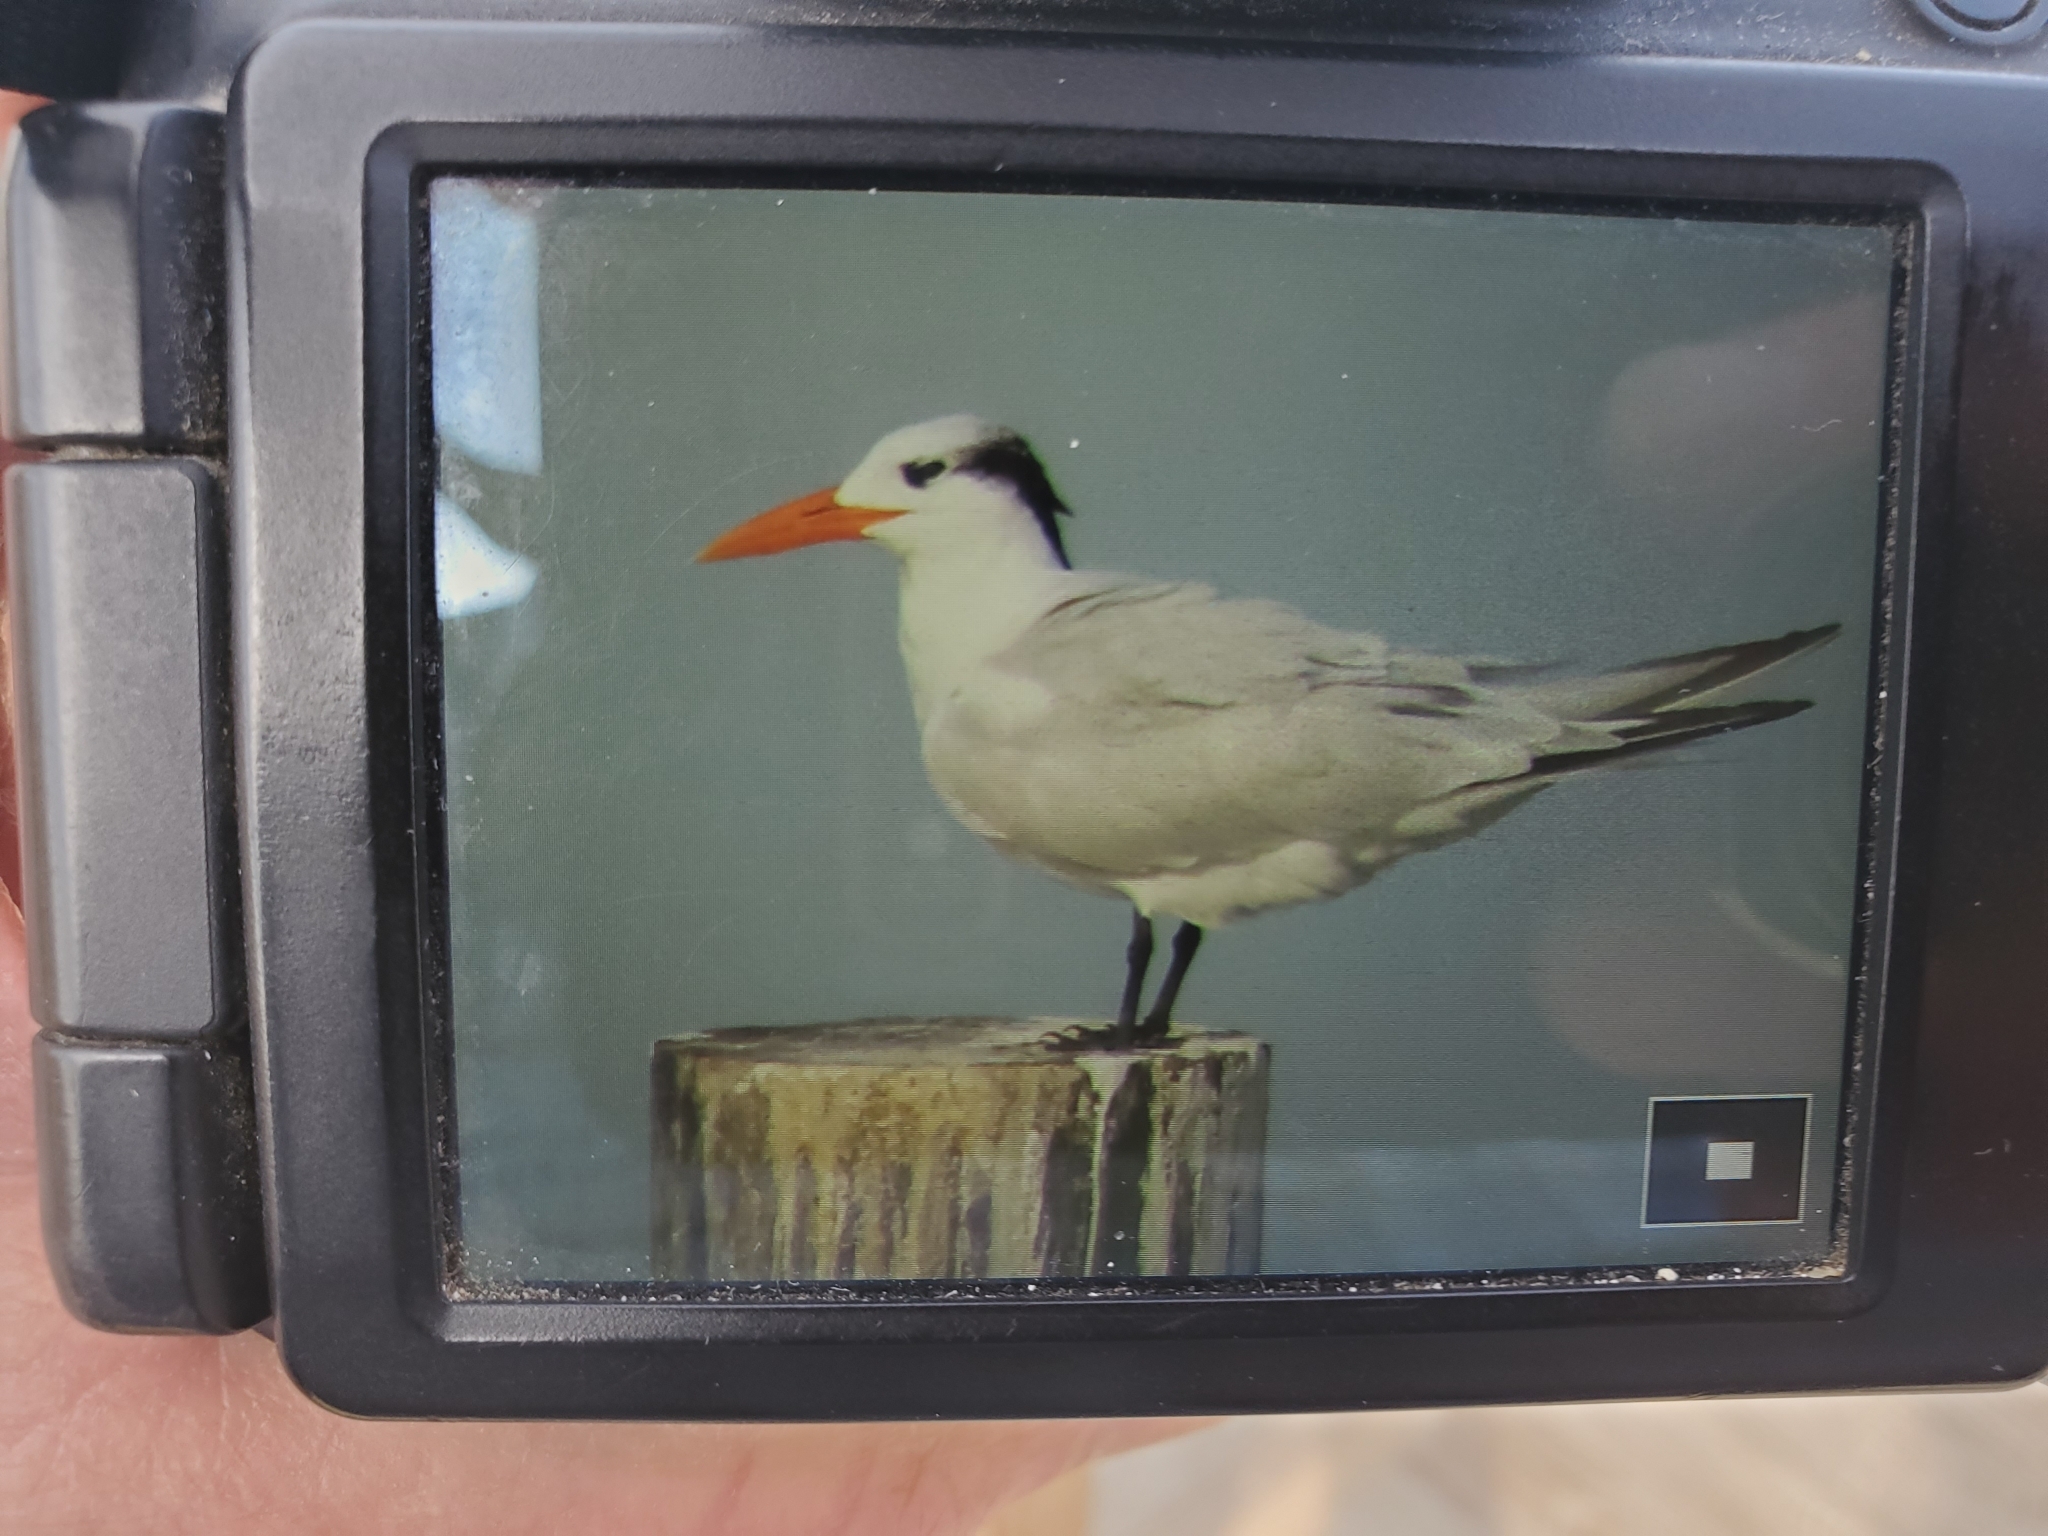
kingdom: Animalia
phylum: Chordata
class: Aves
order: Charadriiformes
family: Laridae
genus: Thalasseus
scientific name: Thalasseus maximus
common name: Royal tern
